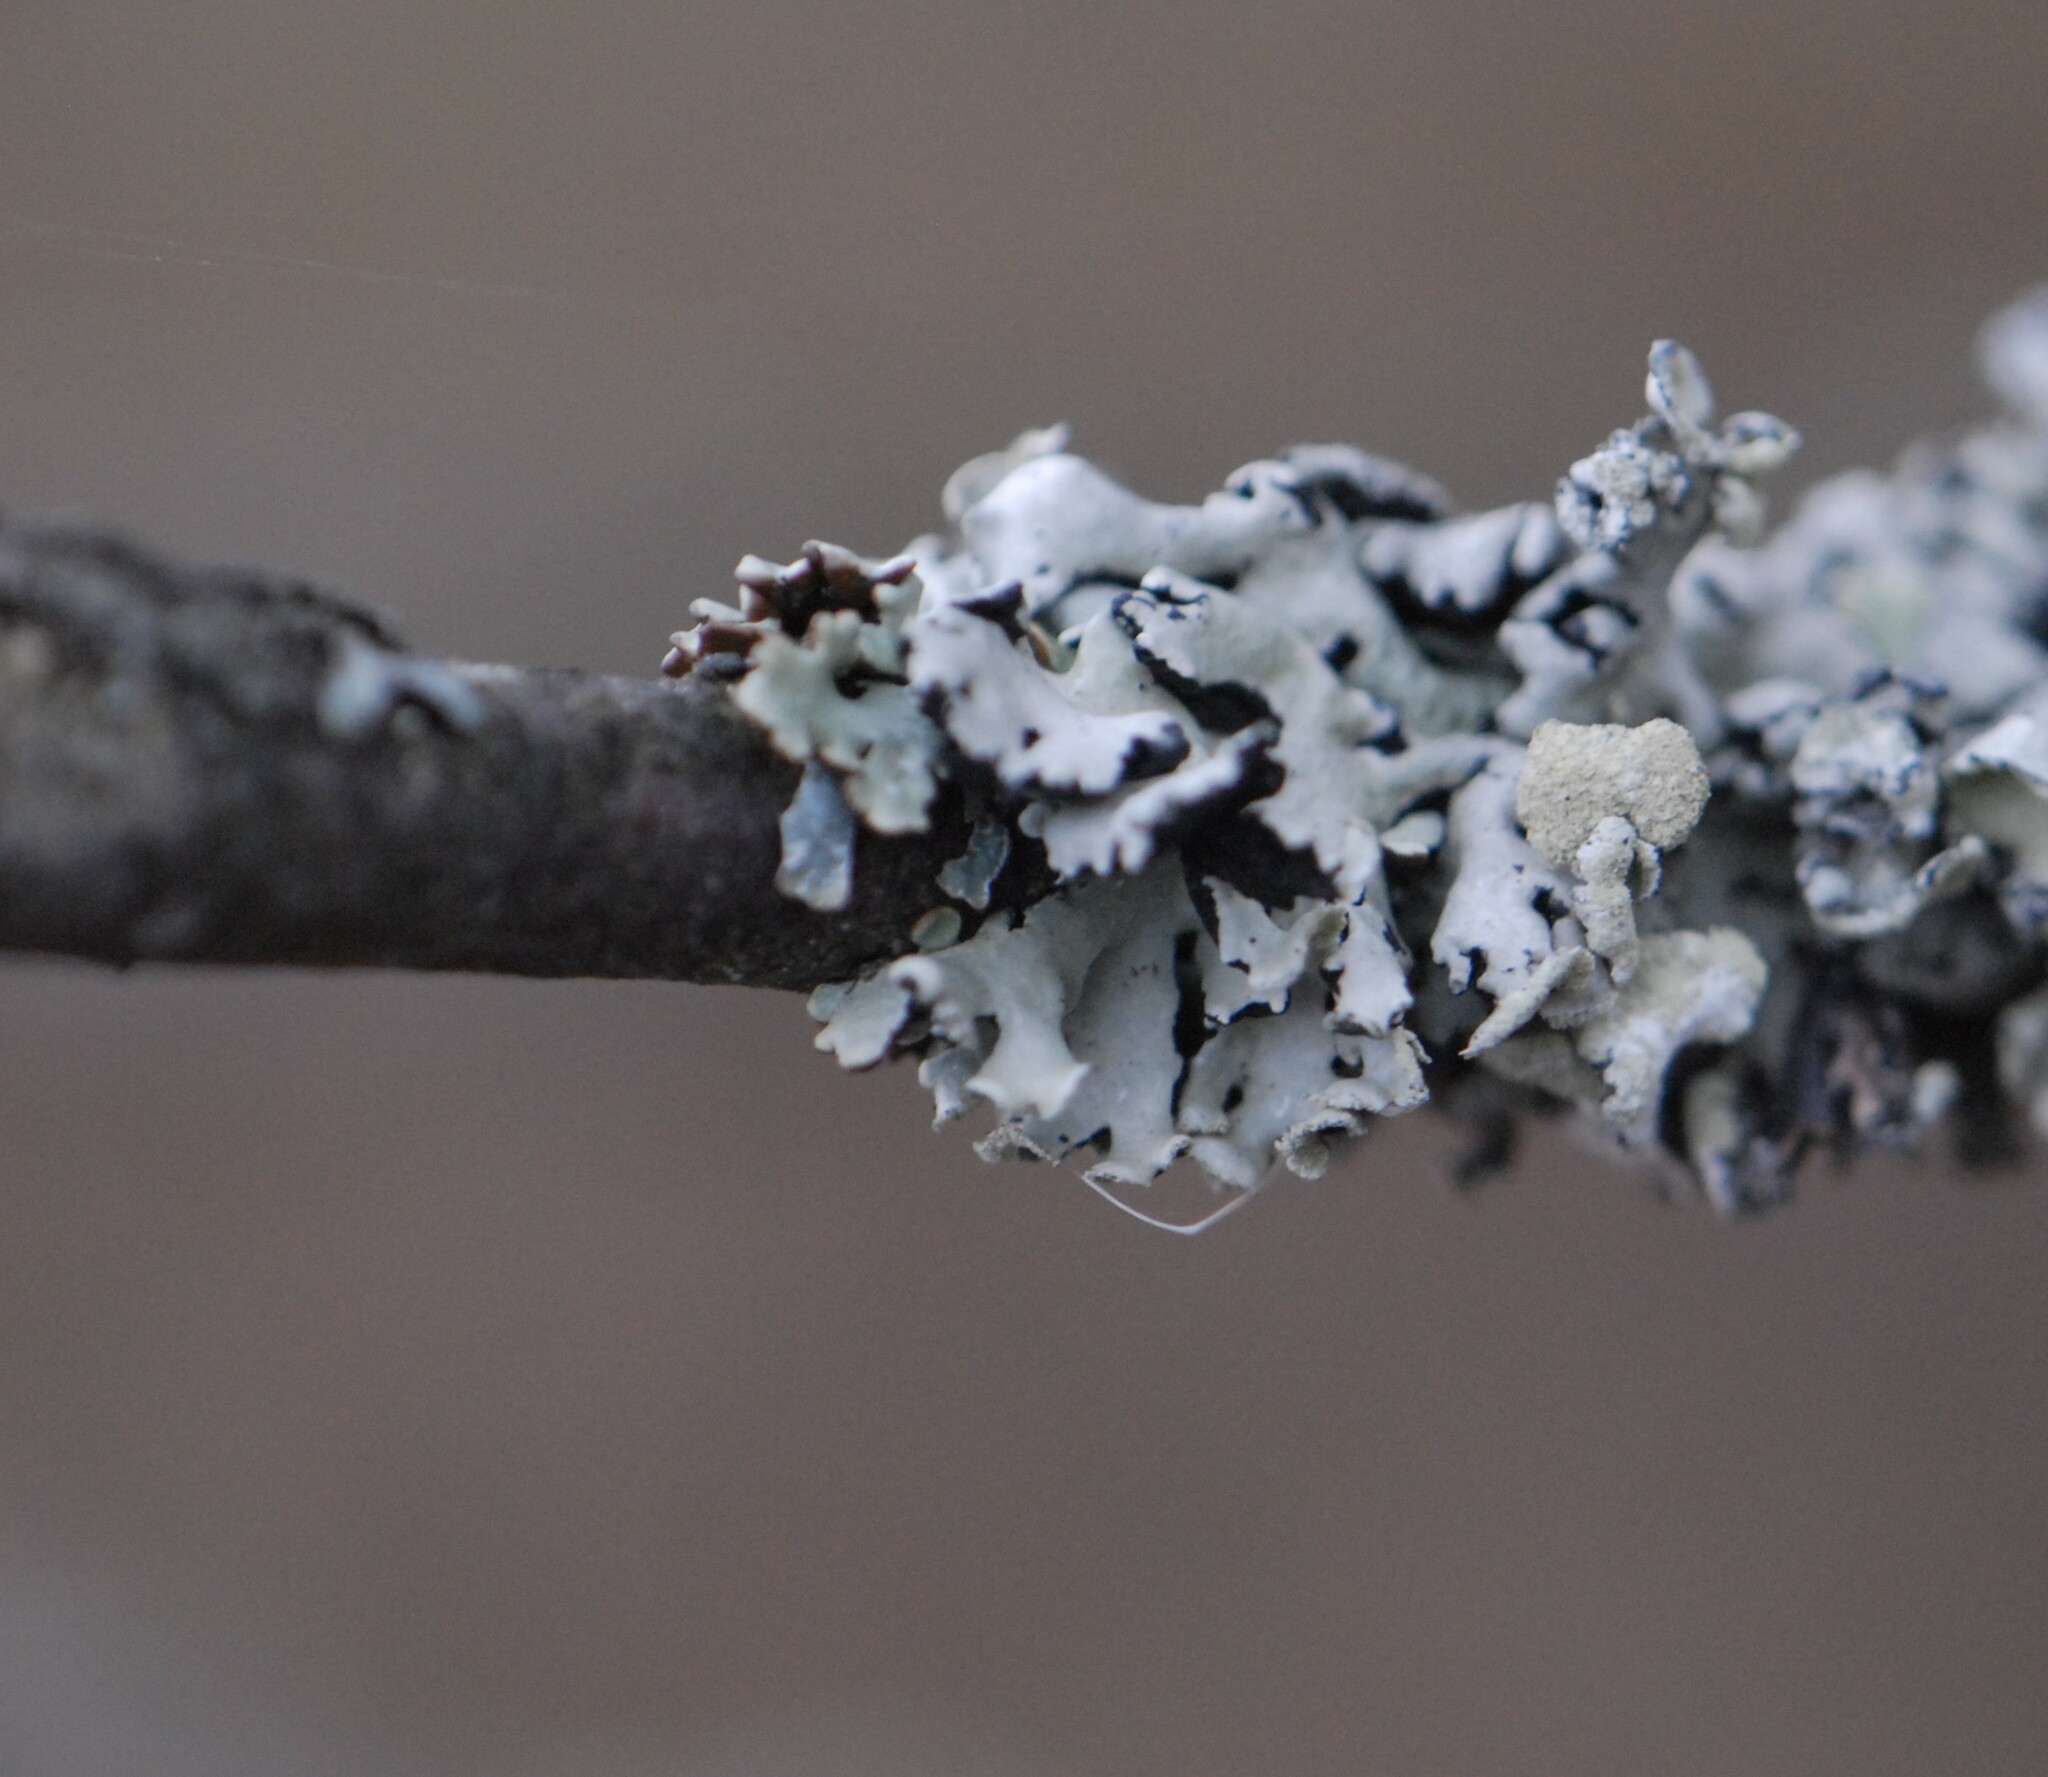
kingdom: Fungi
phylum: Ascomycota
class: Lecanoromycetes
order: Lecanorales
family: Parmeliaceae
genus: Hypogymnia
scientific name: Hypogymnia physodes
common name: Dark crottle
